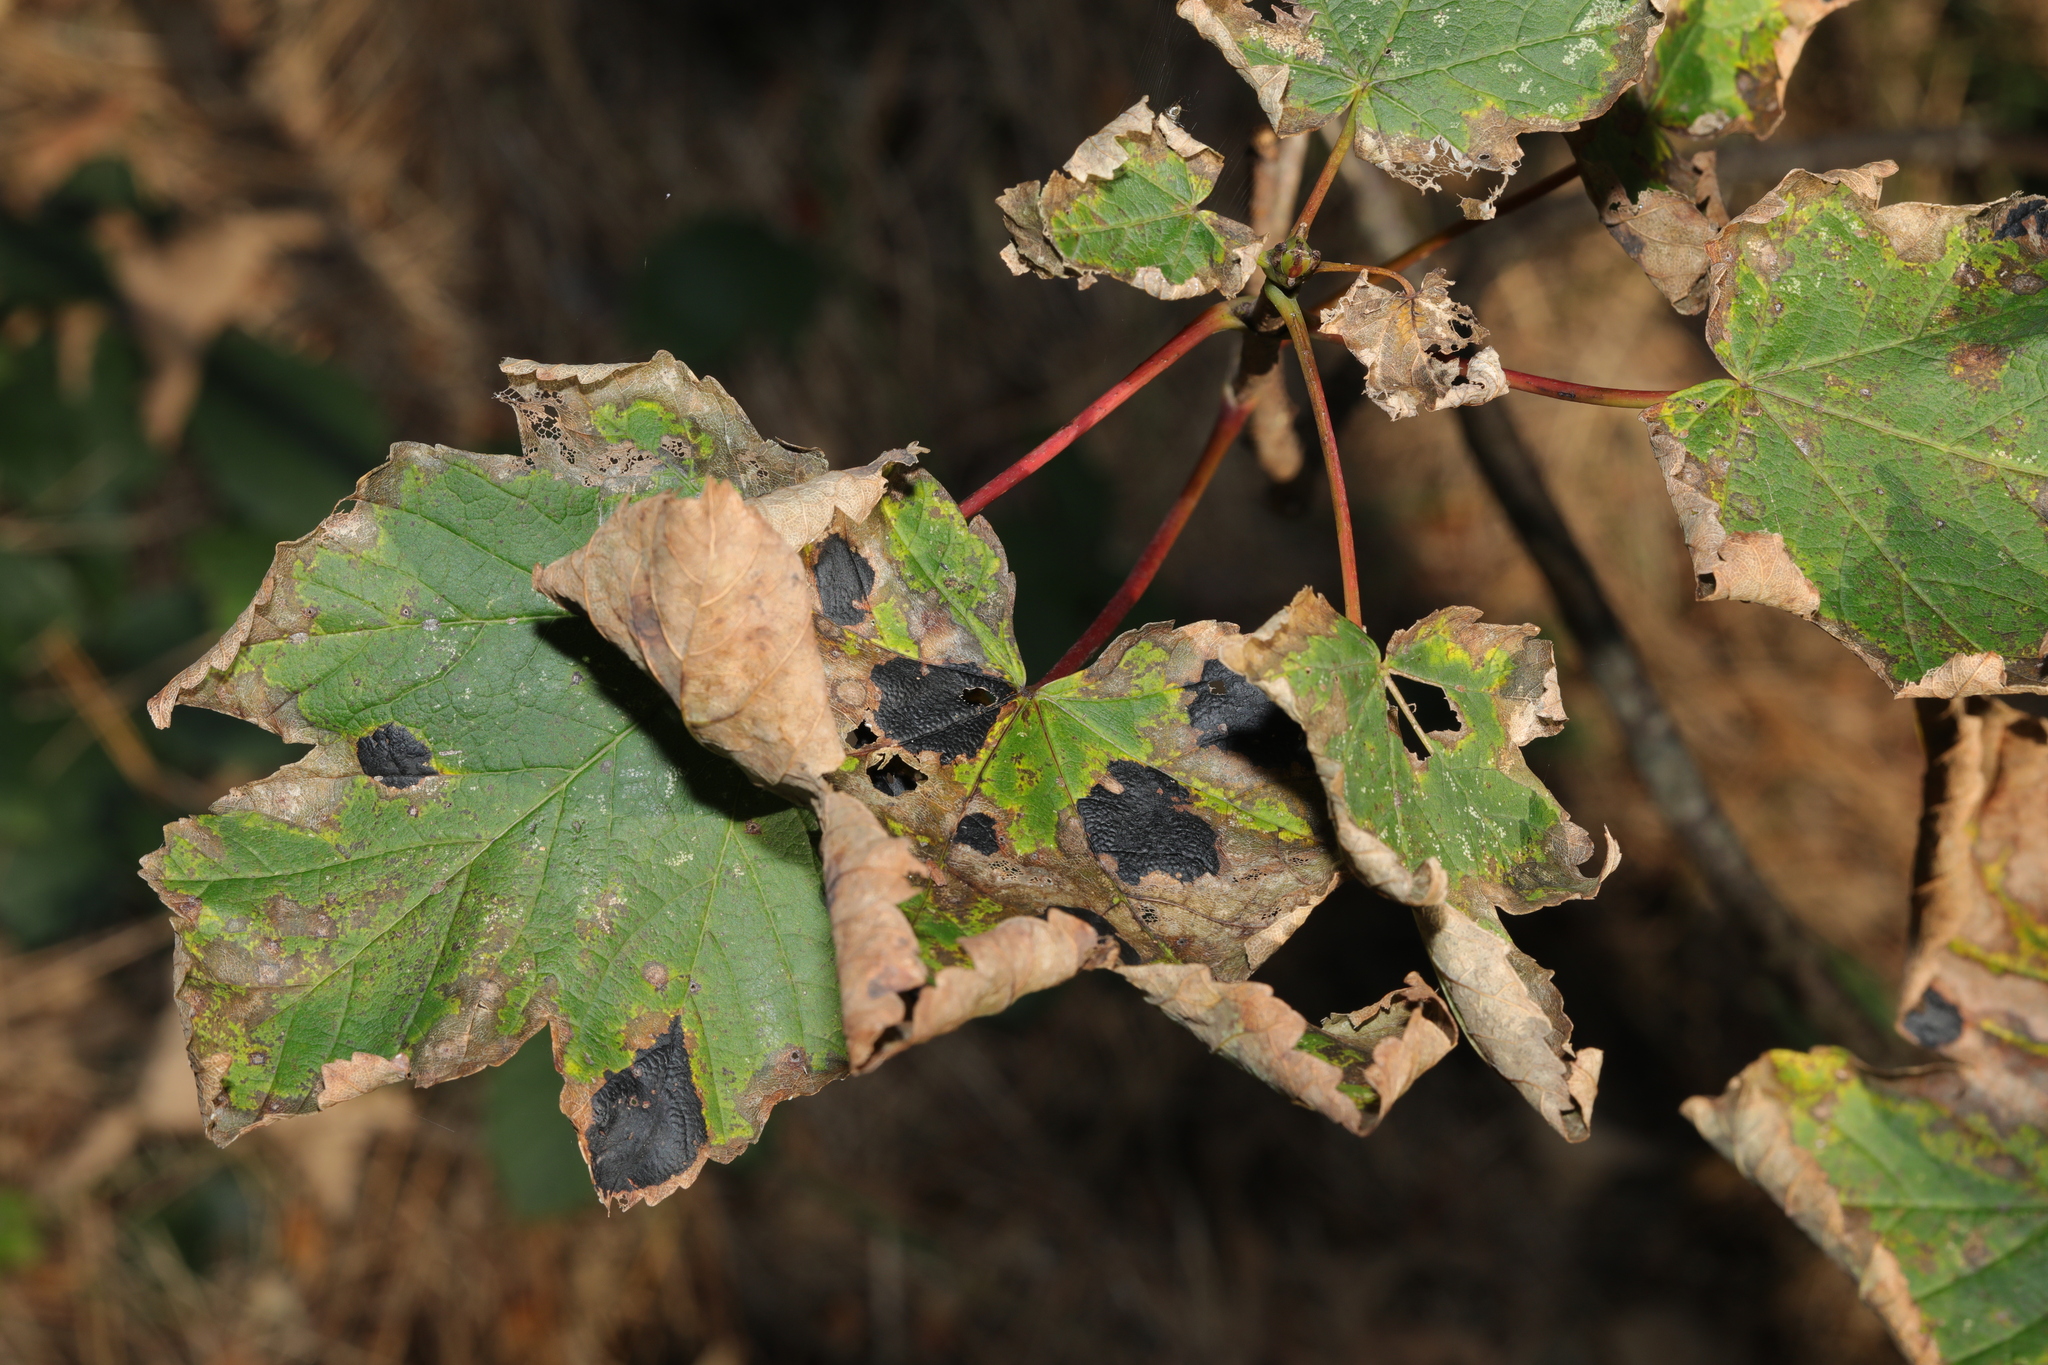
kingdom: Plantae
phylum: Tracheophyta
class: Magnoliopsida
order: Sapindales
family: Sapindaceae
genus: Acer
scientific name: Acer pseudoplatanus
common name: Sycamore
